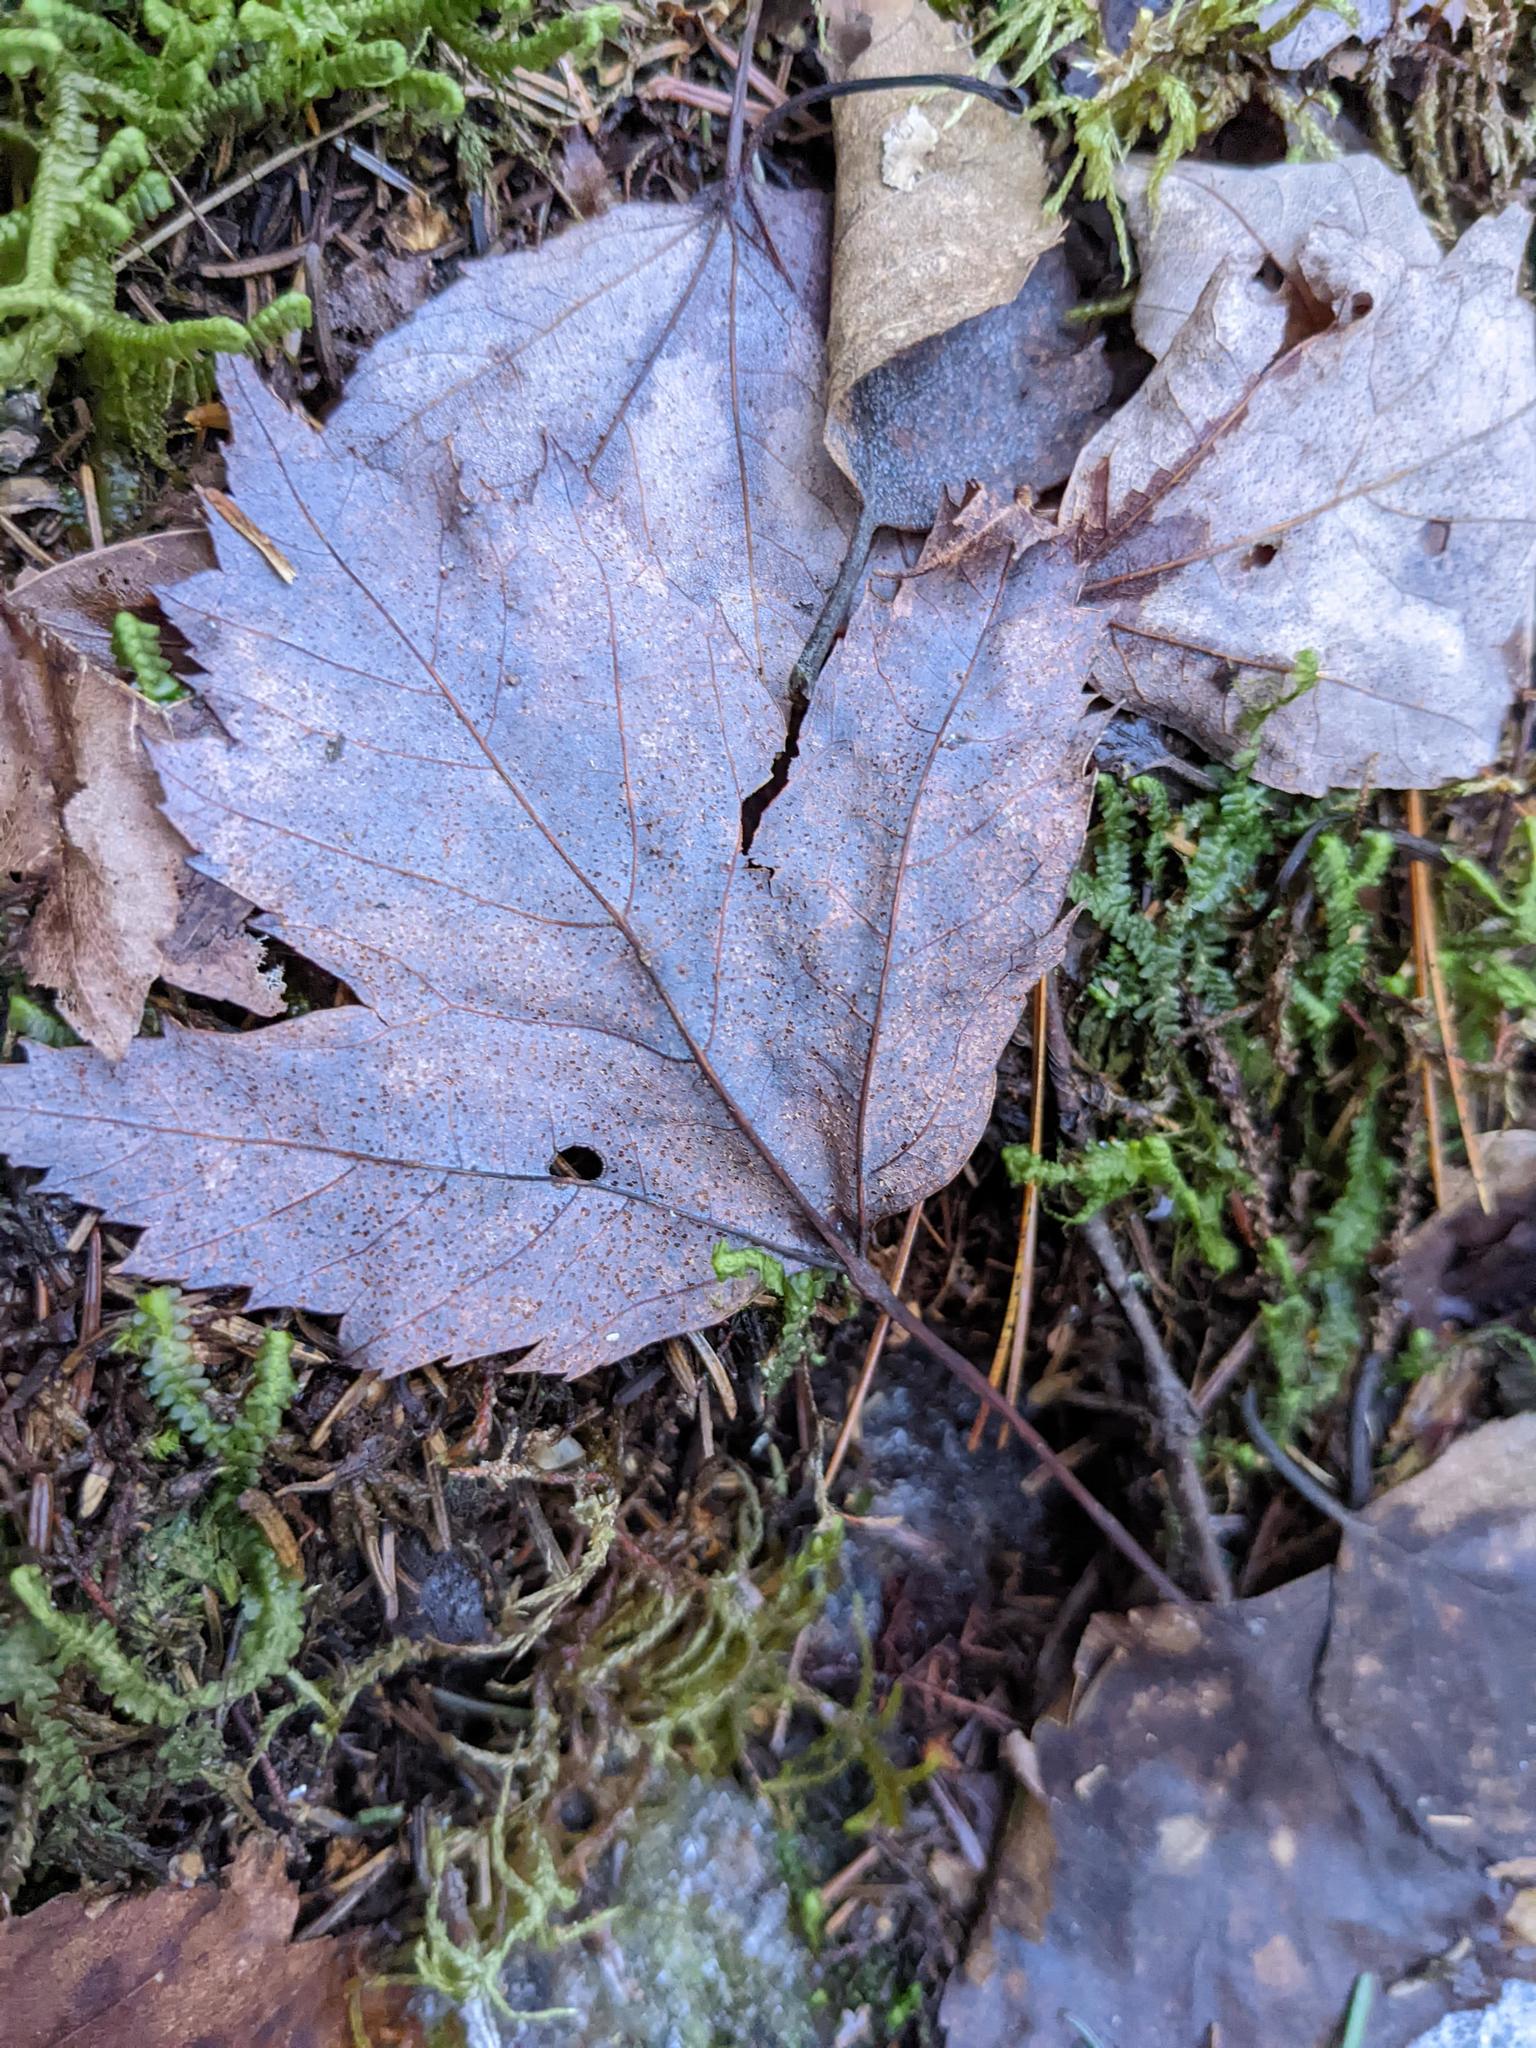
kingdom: Plantae
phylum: Tracheophyta
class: Magnoliopsida
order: Sapindales
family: Sapindaceae
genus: Acer
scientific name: Acer rubrum
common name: Red maple
